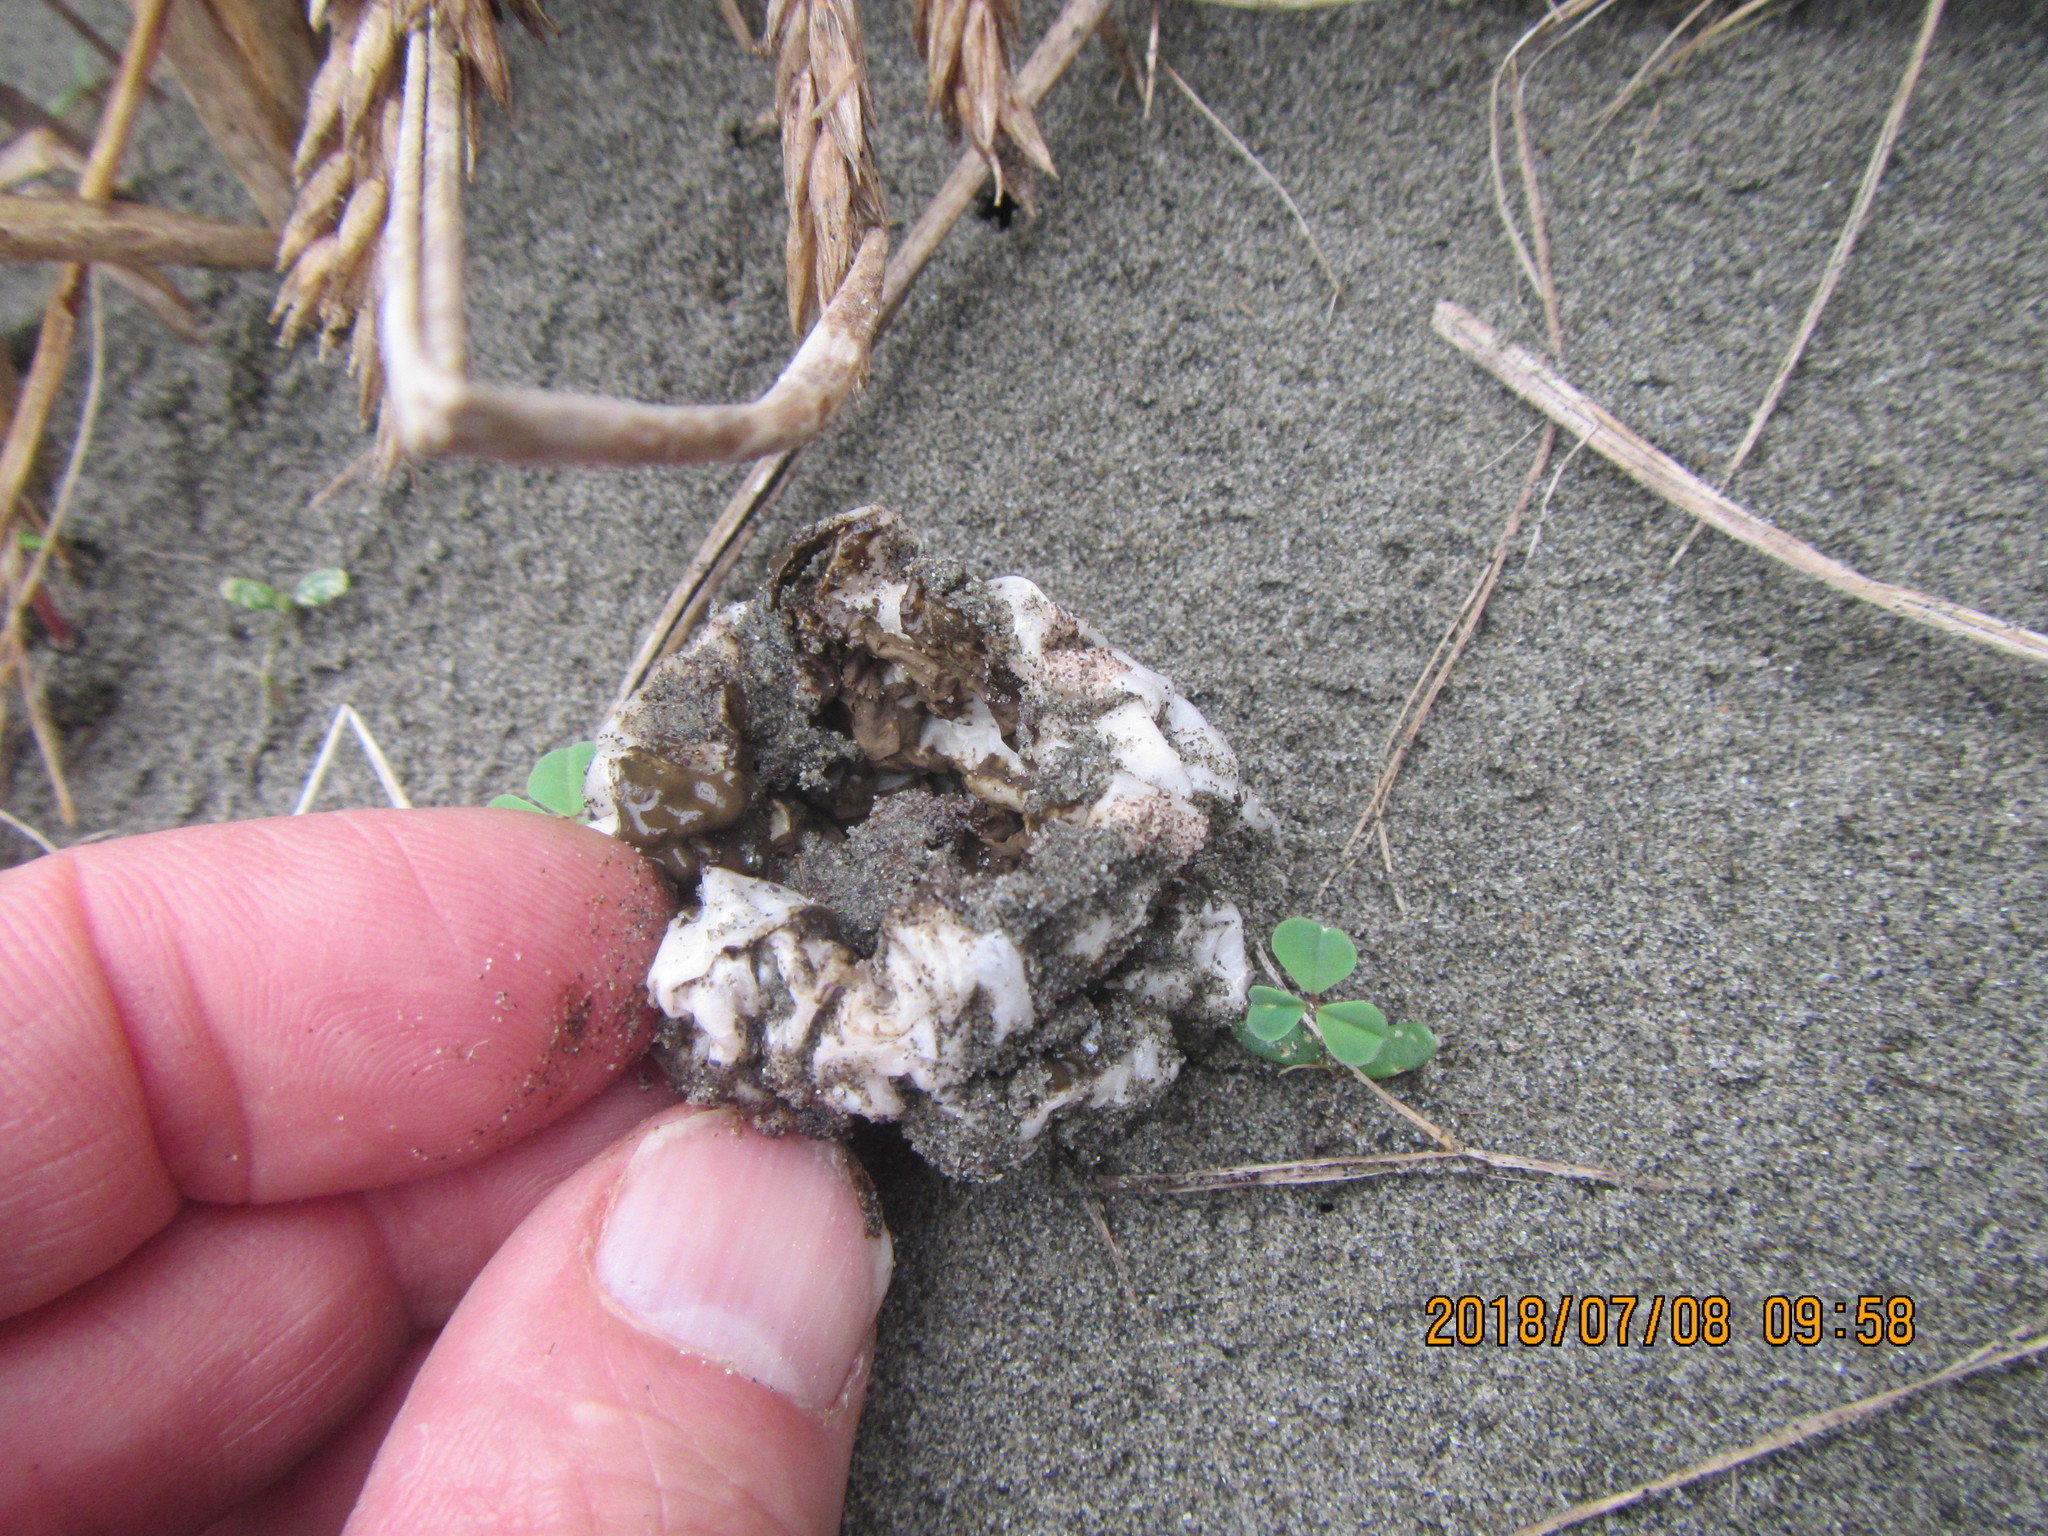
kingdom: Fungi
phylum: Basidiomycota
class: Agaricomycetes
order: Phallales
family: Phallaceae
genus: Ileodictyon
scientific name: Ileodictyon cibarium
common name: Basket fungus
